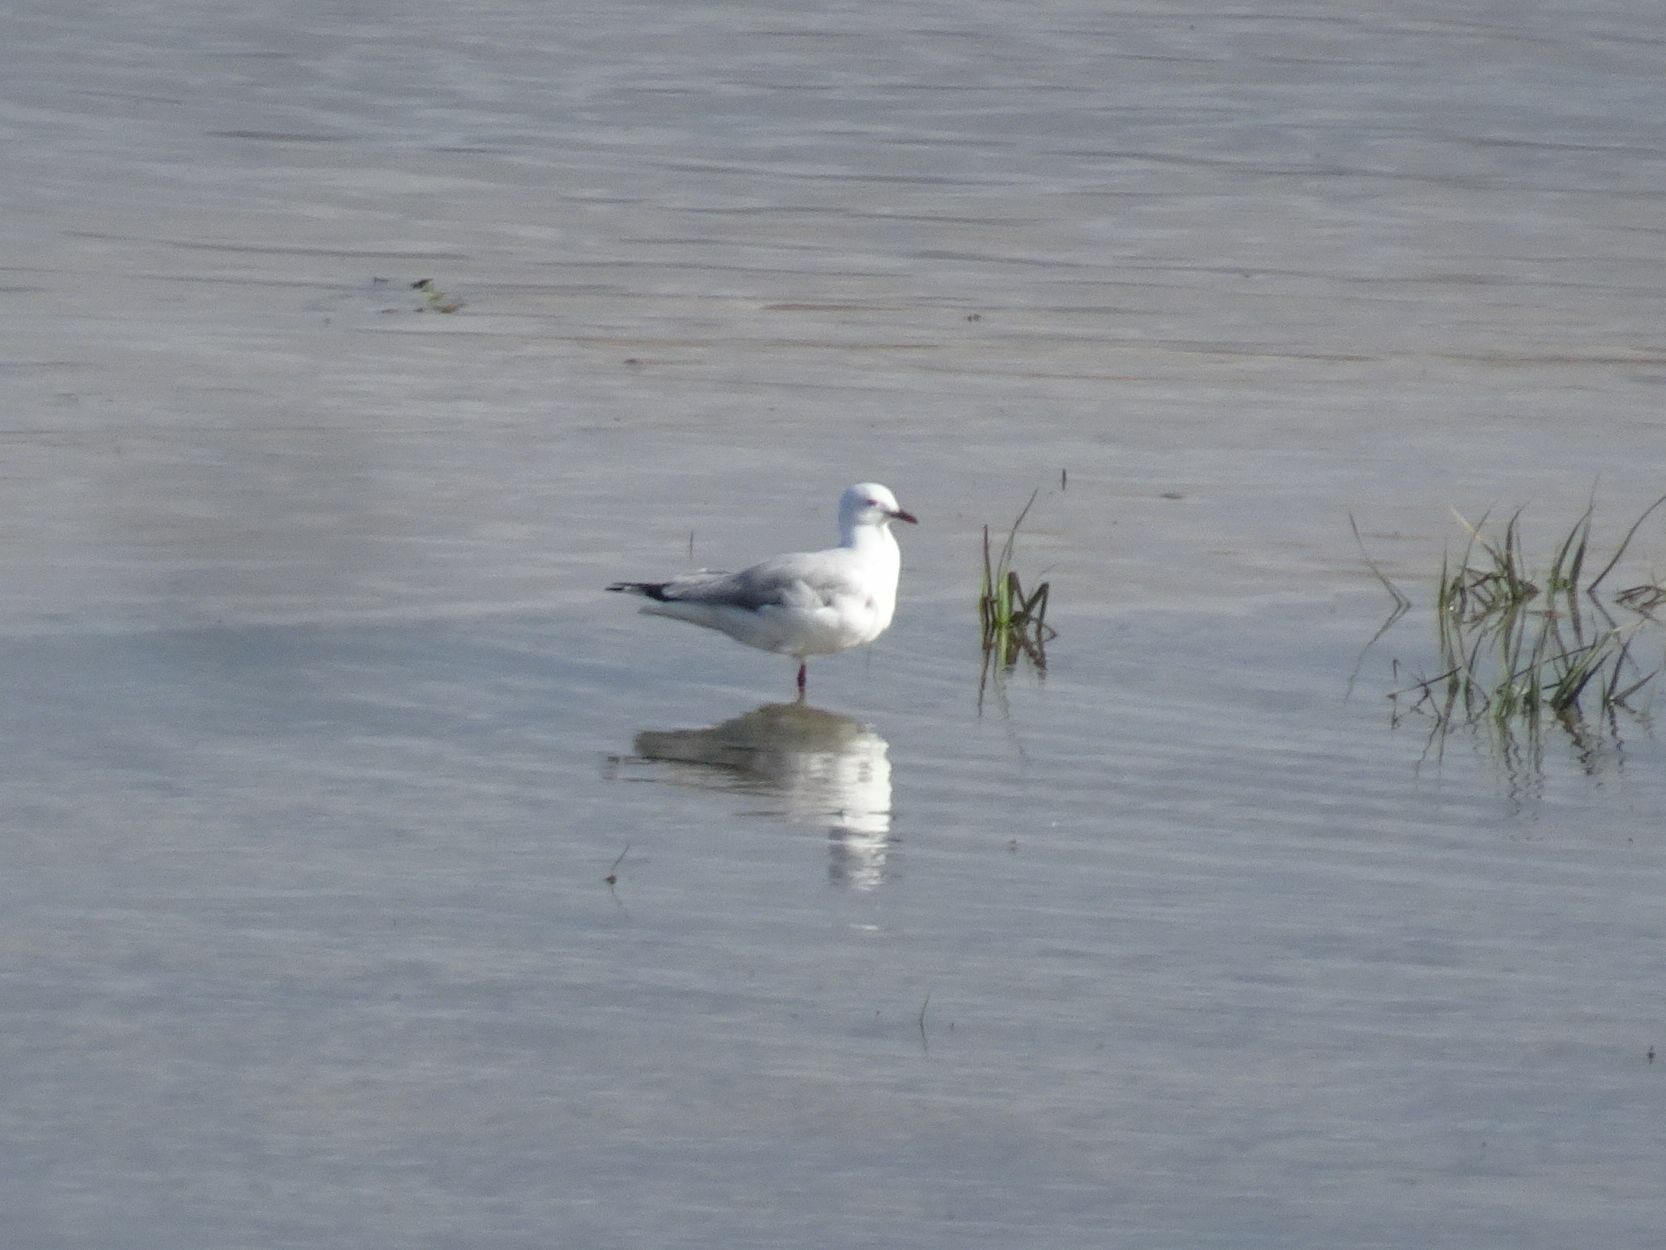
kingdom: Animalia
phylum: Chordata
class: Aves
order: Charadriiformes
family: Laridae
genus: Chroicocephalus
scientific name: Chroicocephalus hartlaubii
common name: Hartlaub's gull
